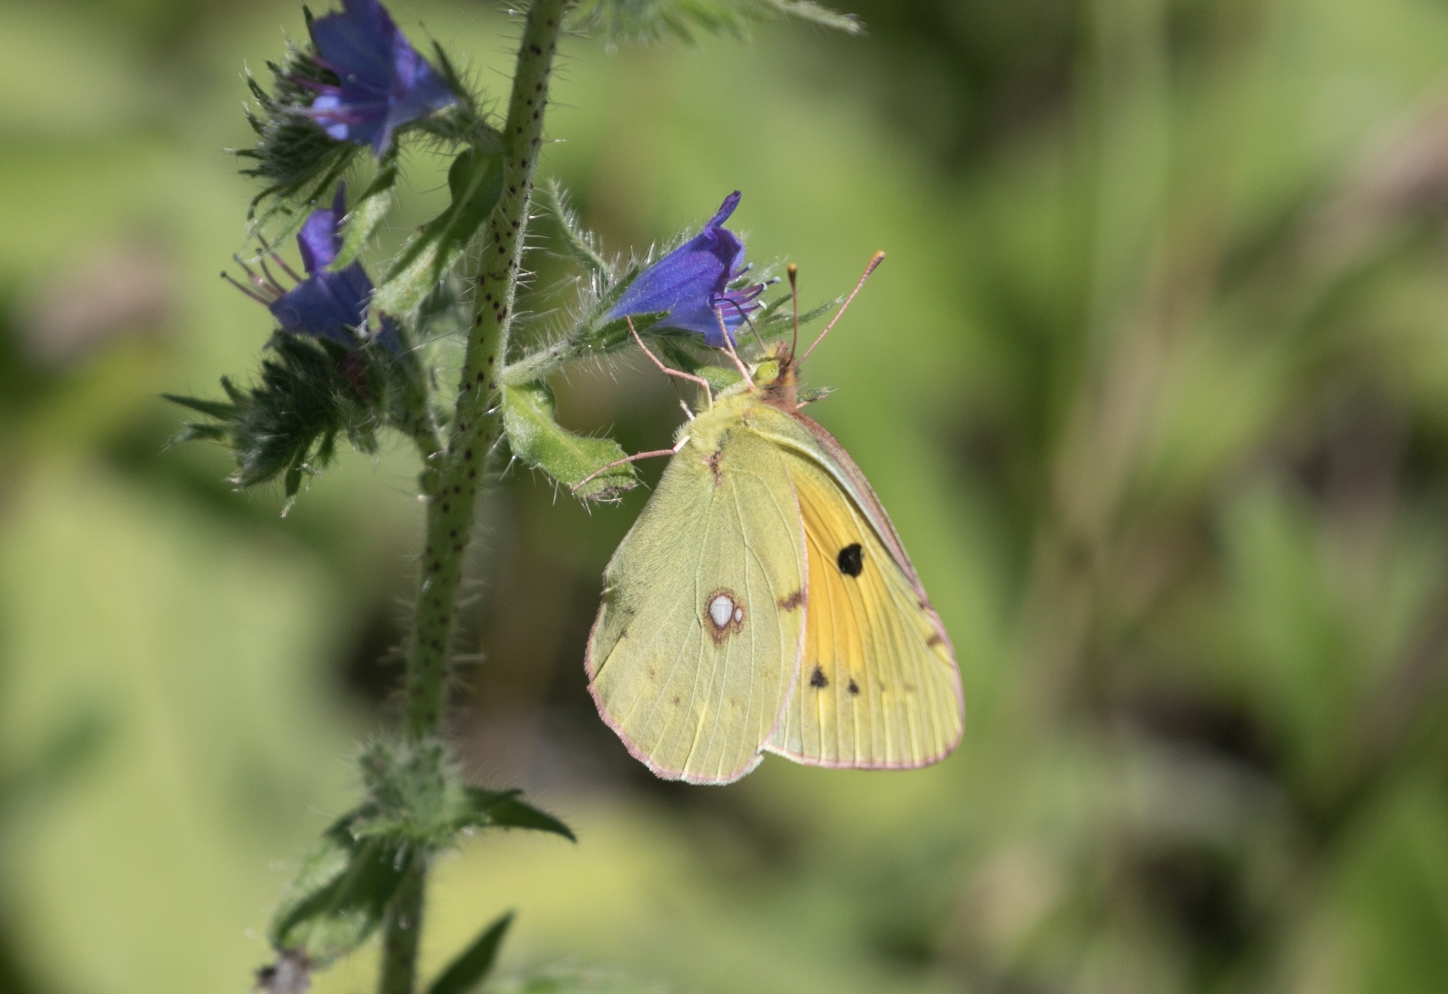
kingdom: Animalia
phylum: Arthropoda
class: Insecta
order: Lepidoptera
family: Pieridae
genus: Colias
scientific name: Colias croceus
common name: Clouded yellow
